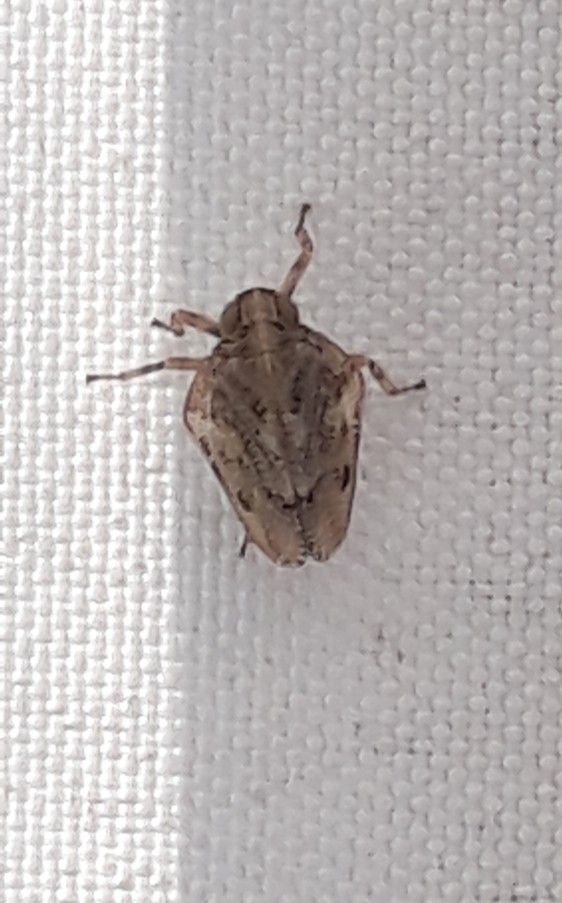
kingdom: Animalia
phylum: Arthropoda
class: Insecta
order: Hemiptera
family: Issidae
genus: Issus
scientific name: Issus coleoptratus
